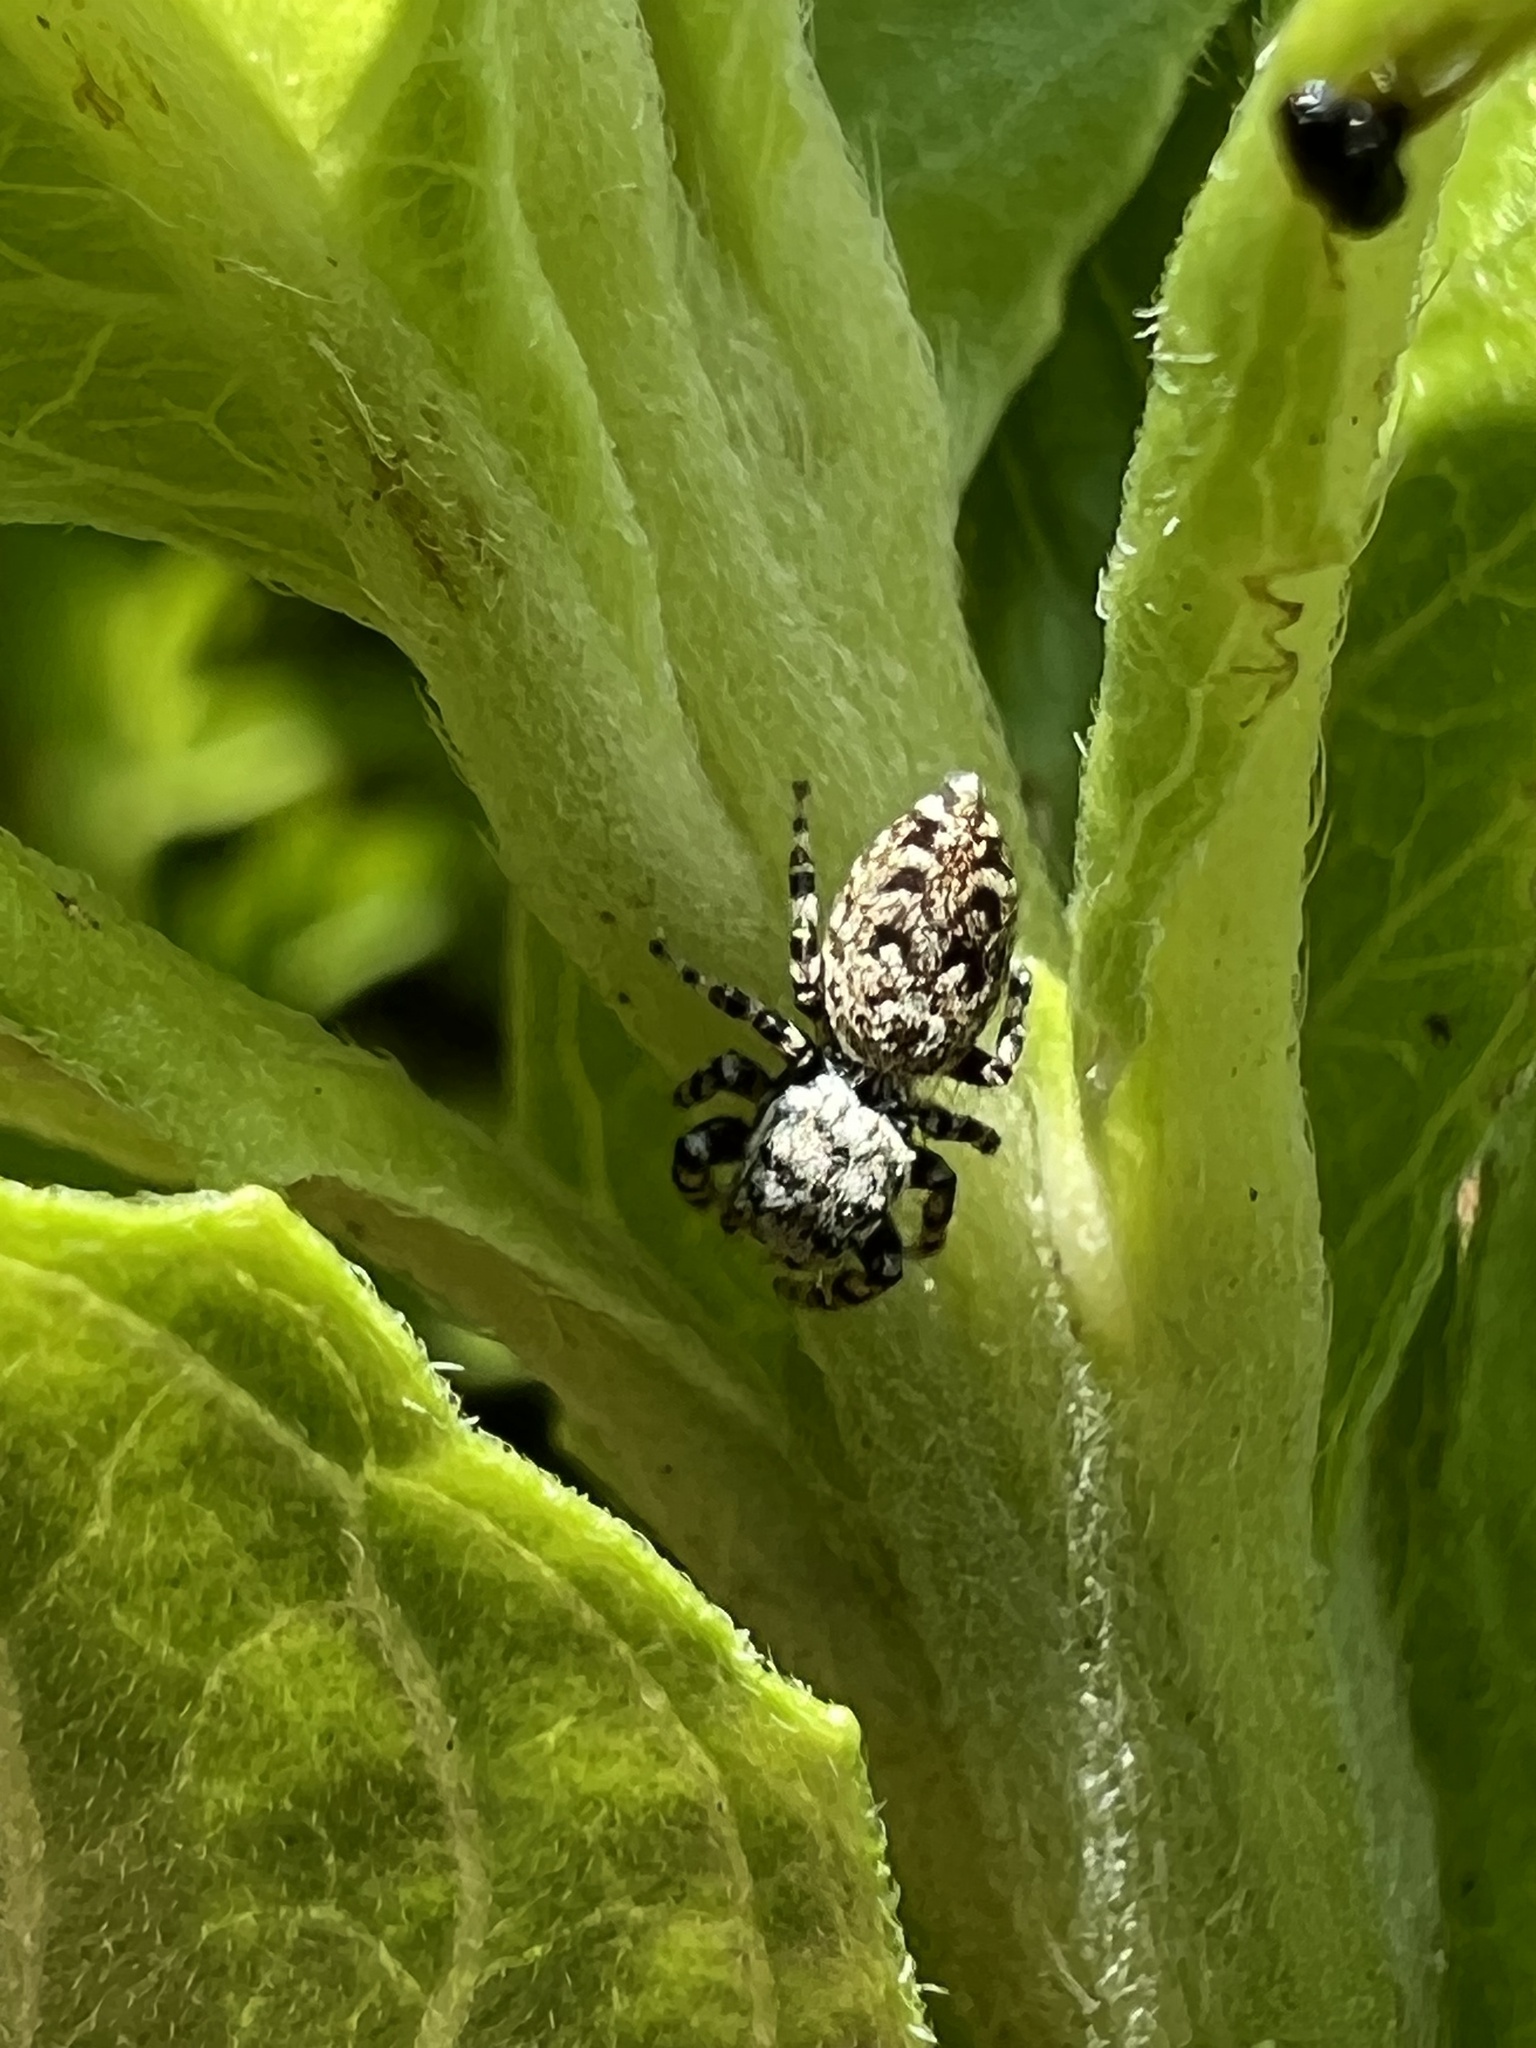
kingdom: Animalia
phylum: Arthropoda
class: Arachnida
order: Araneae
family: Salticidae
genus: Pelegrina
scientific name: Pelegrina galathea
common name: Jumping spiders
